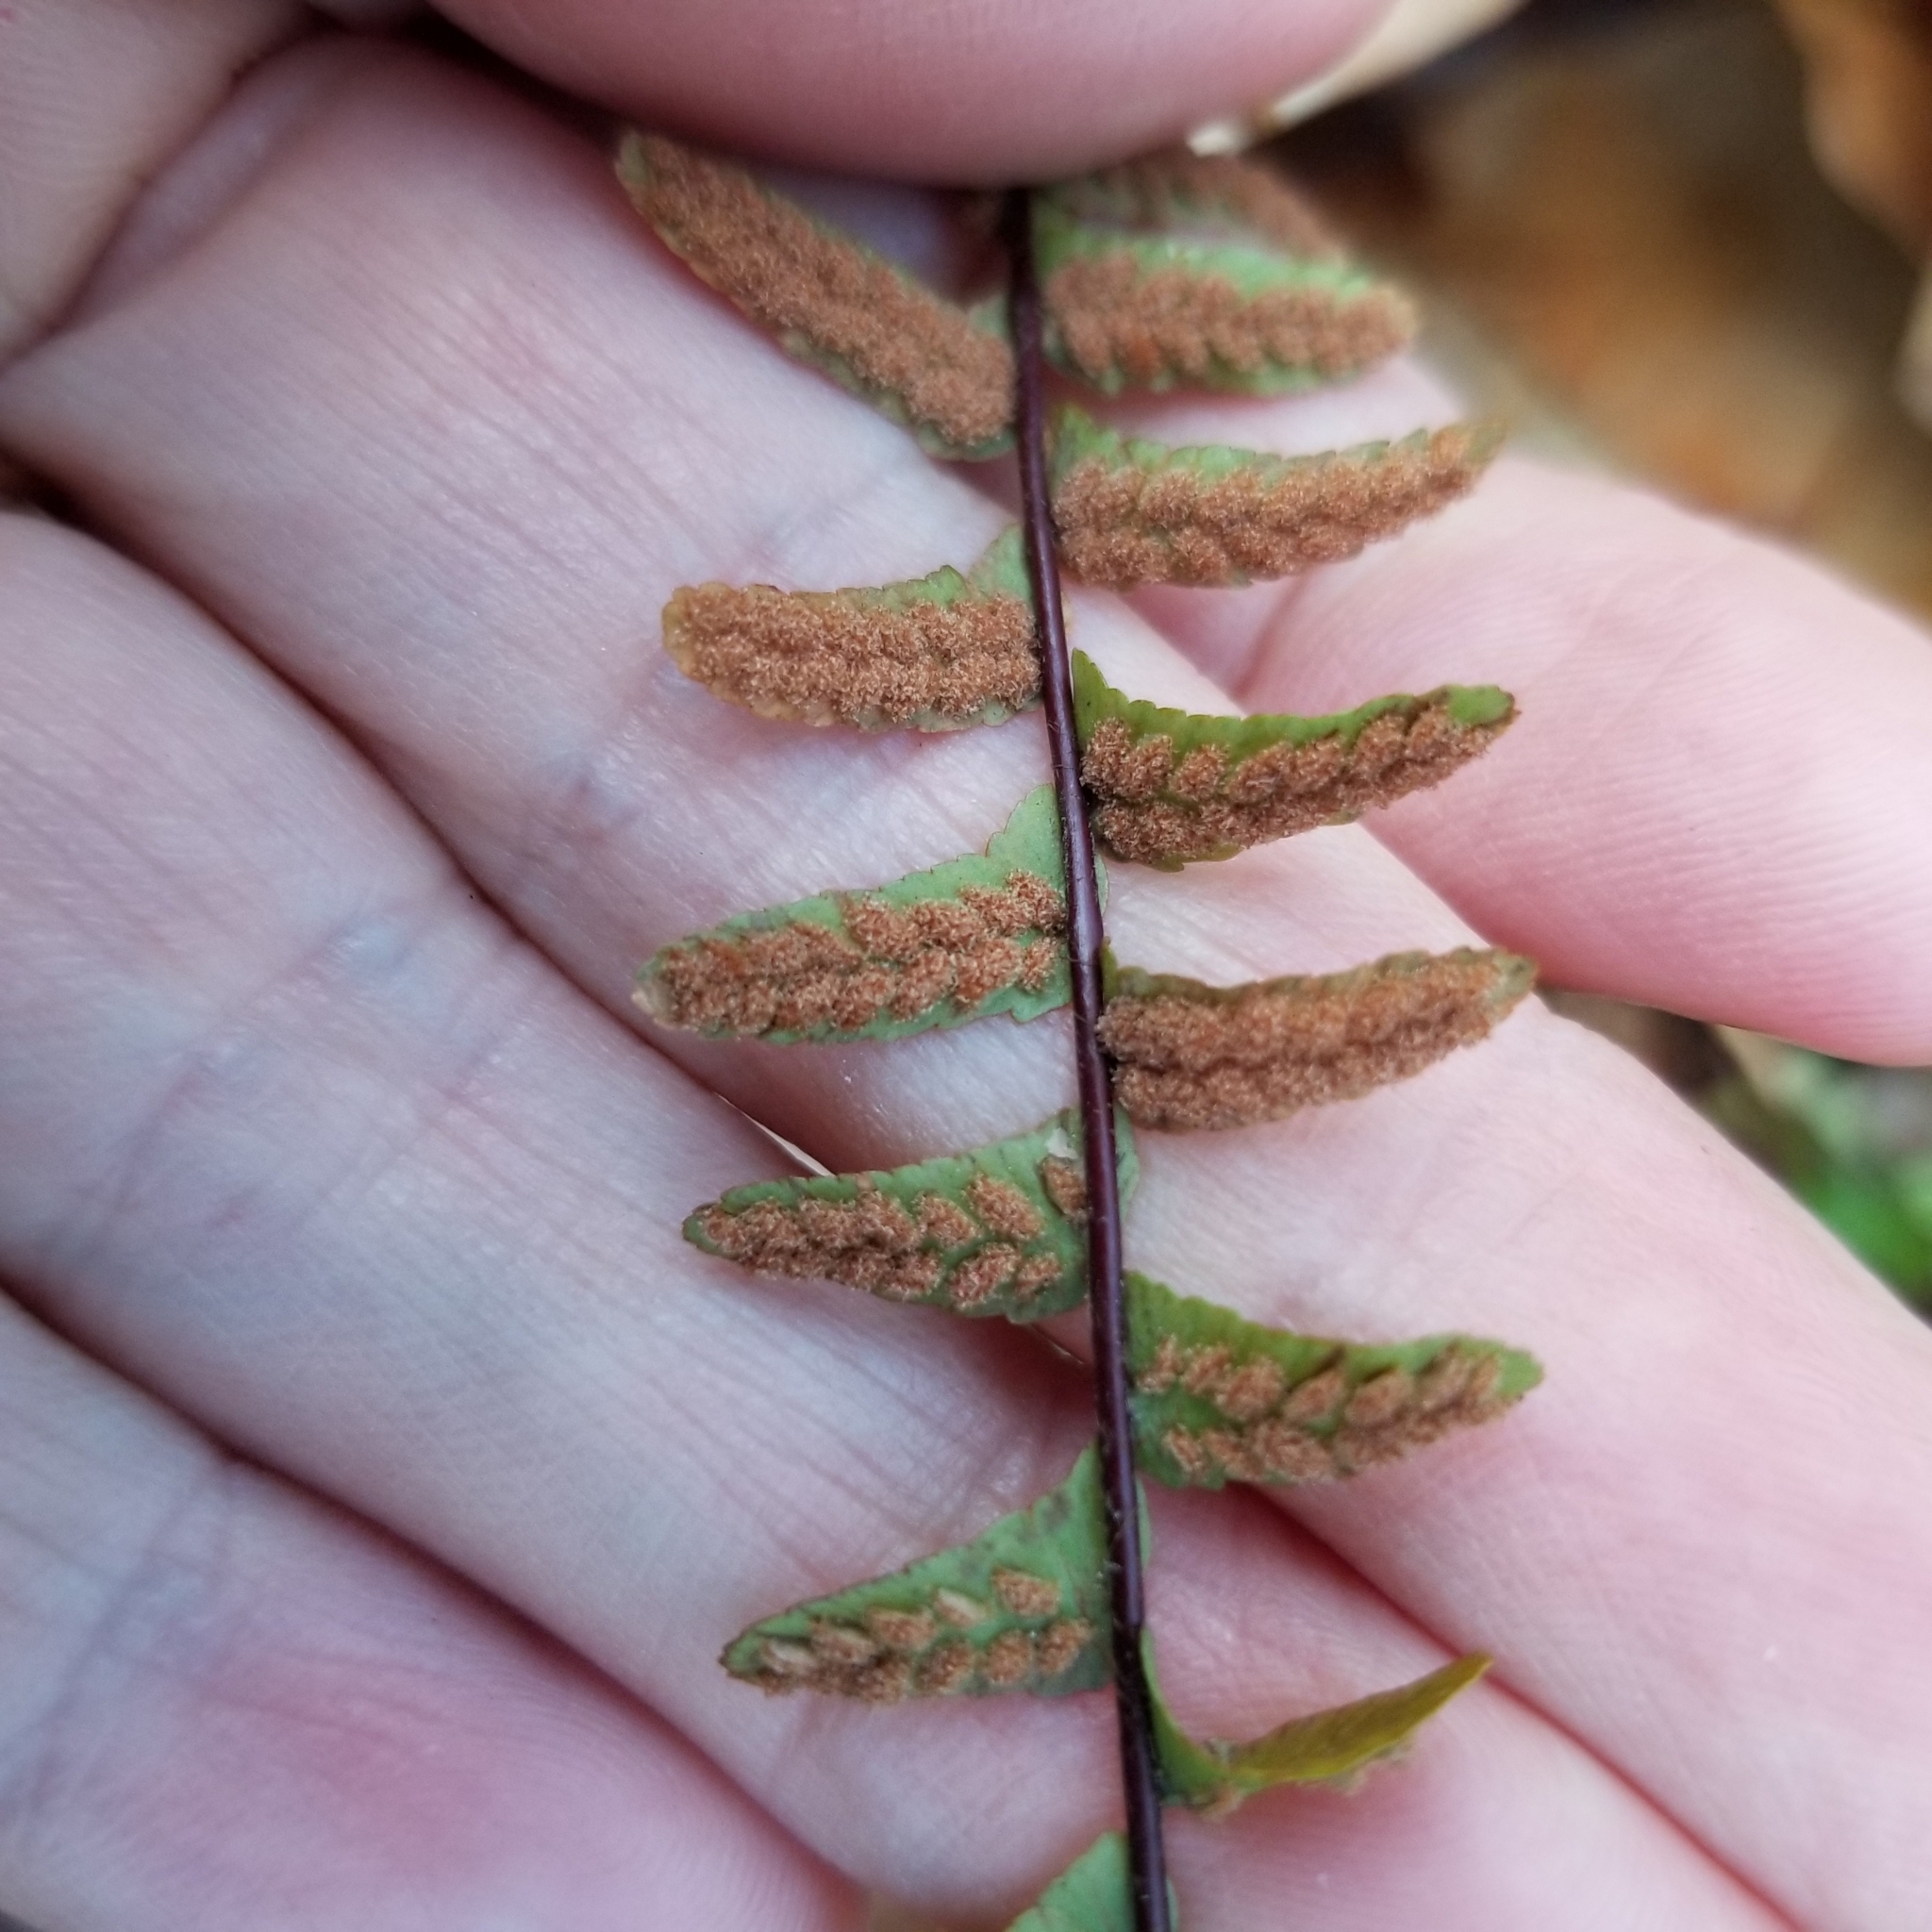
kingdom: Plantae
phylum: Tracheophyta
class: Polypodiopsida
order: Polypodiales
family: Aspleniaceae
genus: Asplenium
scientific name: Asplenium platyneuron
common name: Ebony spleenwort
